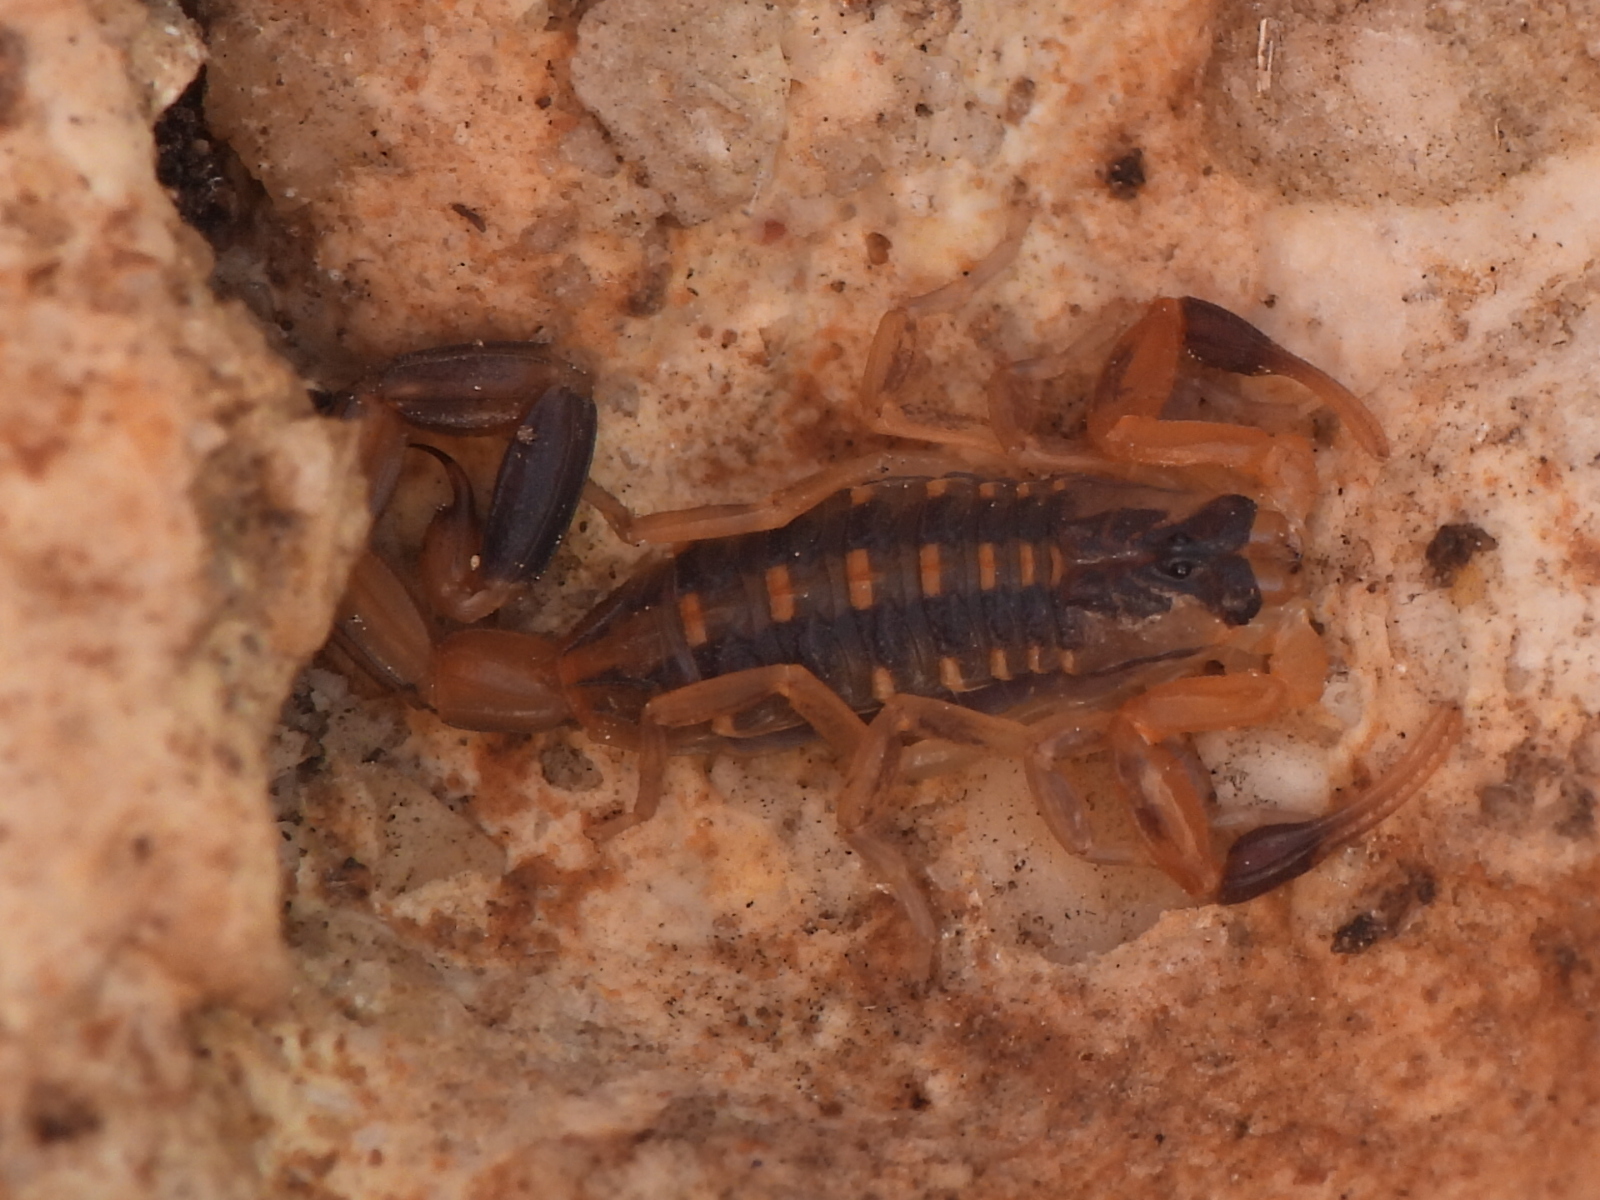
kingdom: Animalia
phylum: Arthropoda
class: Arachnida
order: Scorpiones
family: Buthidae
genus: Centruroides
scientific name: Centruroides vittatus
